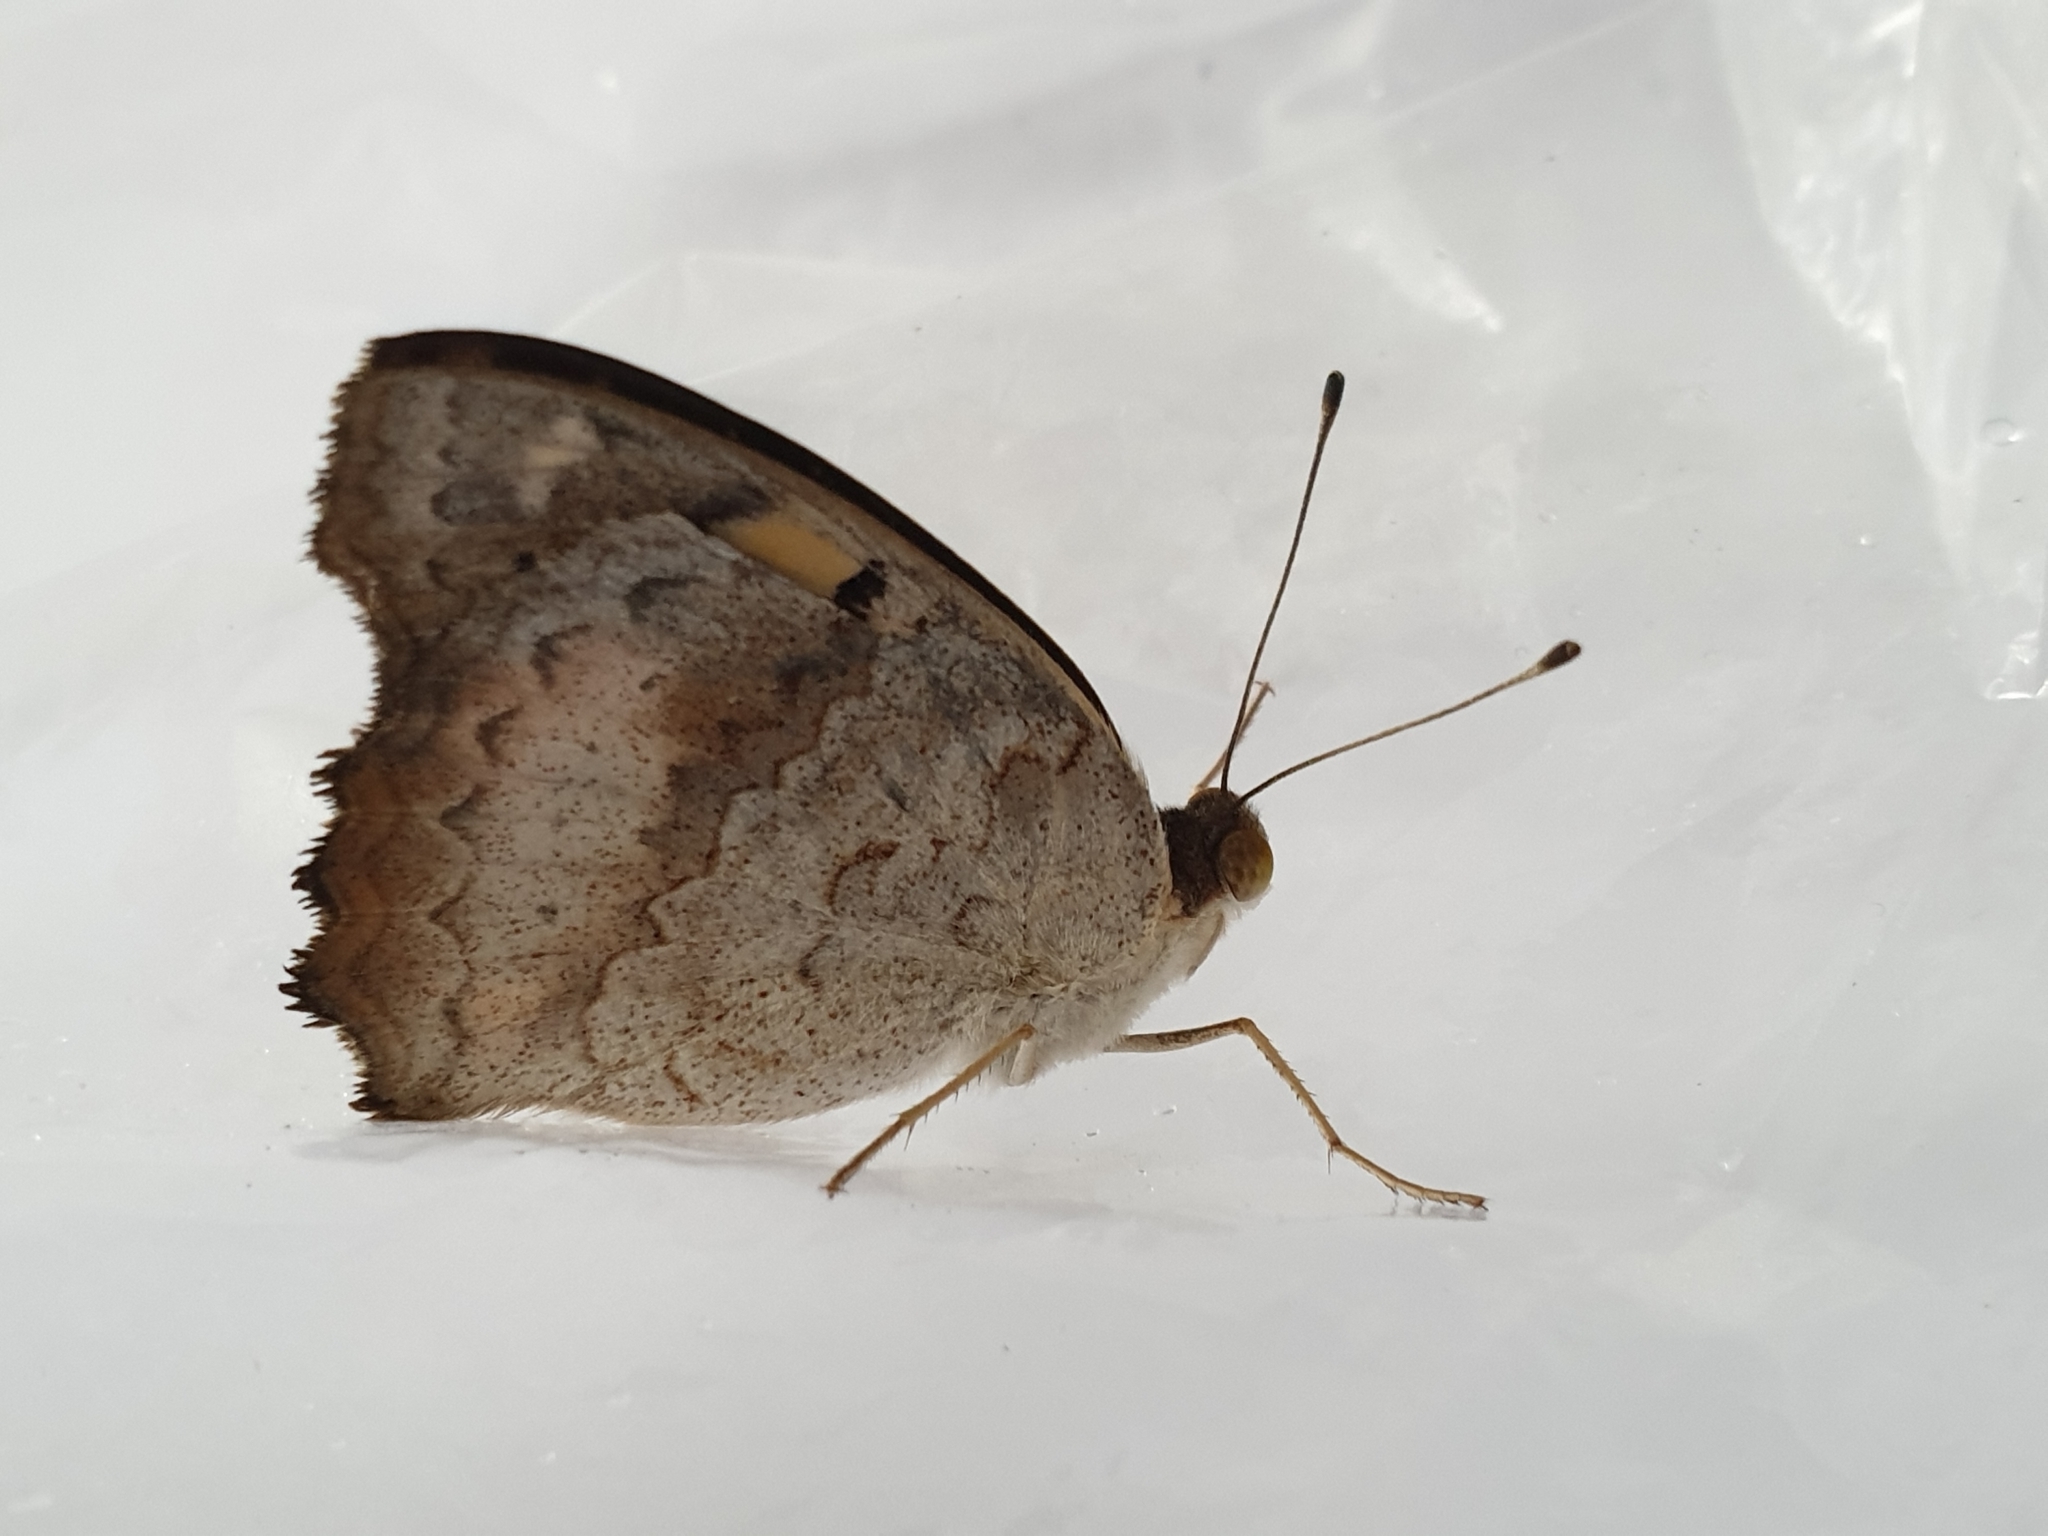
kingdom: Animalia
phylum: Arthropoda
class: Insecta
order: Lepidoptera
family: Nymphalidae
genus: Junonia
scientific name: Junonia hierta
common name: Yellow pansy
